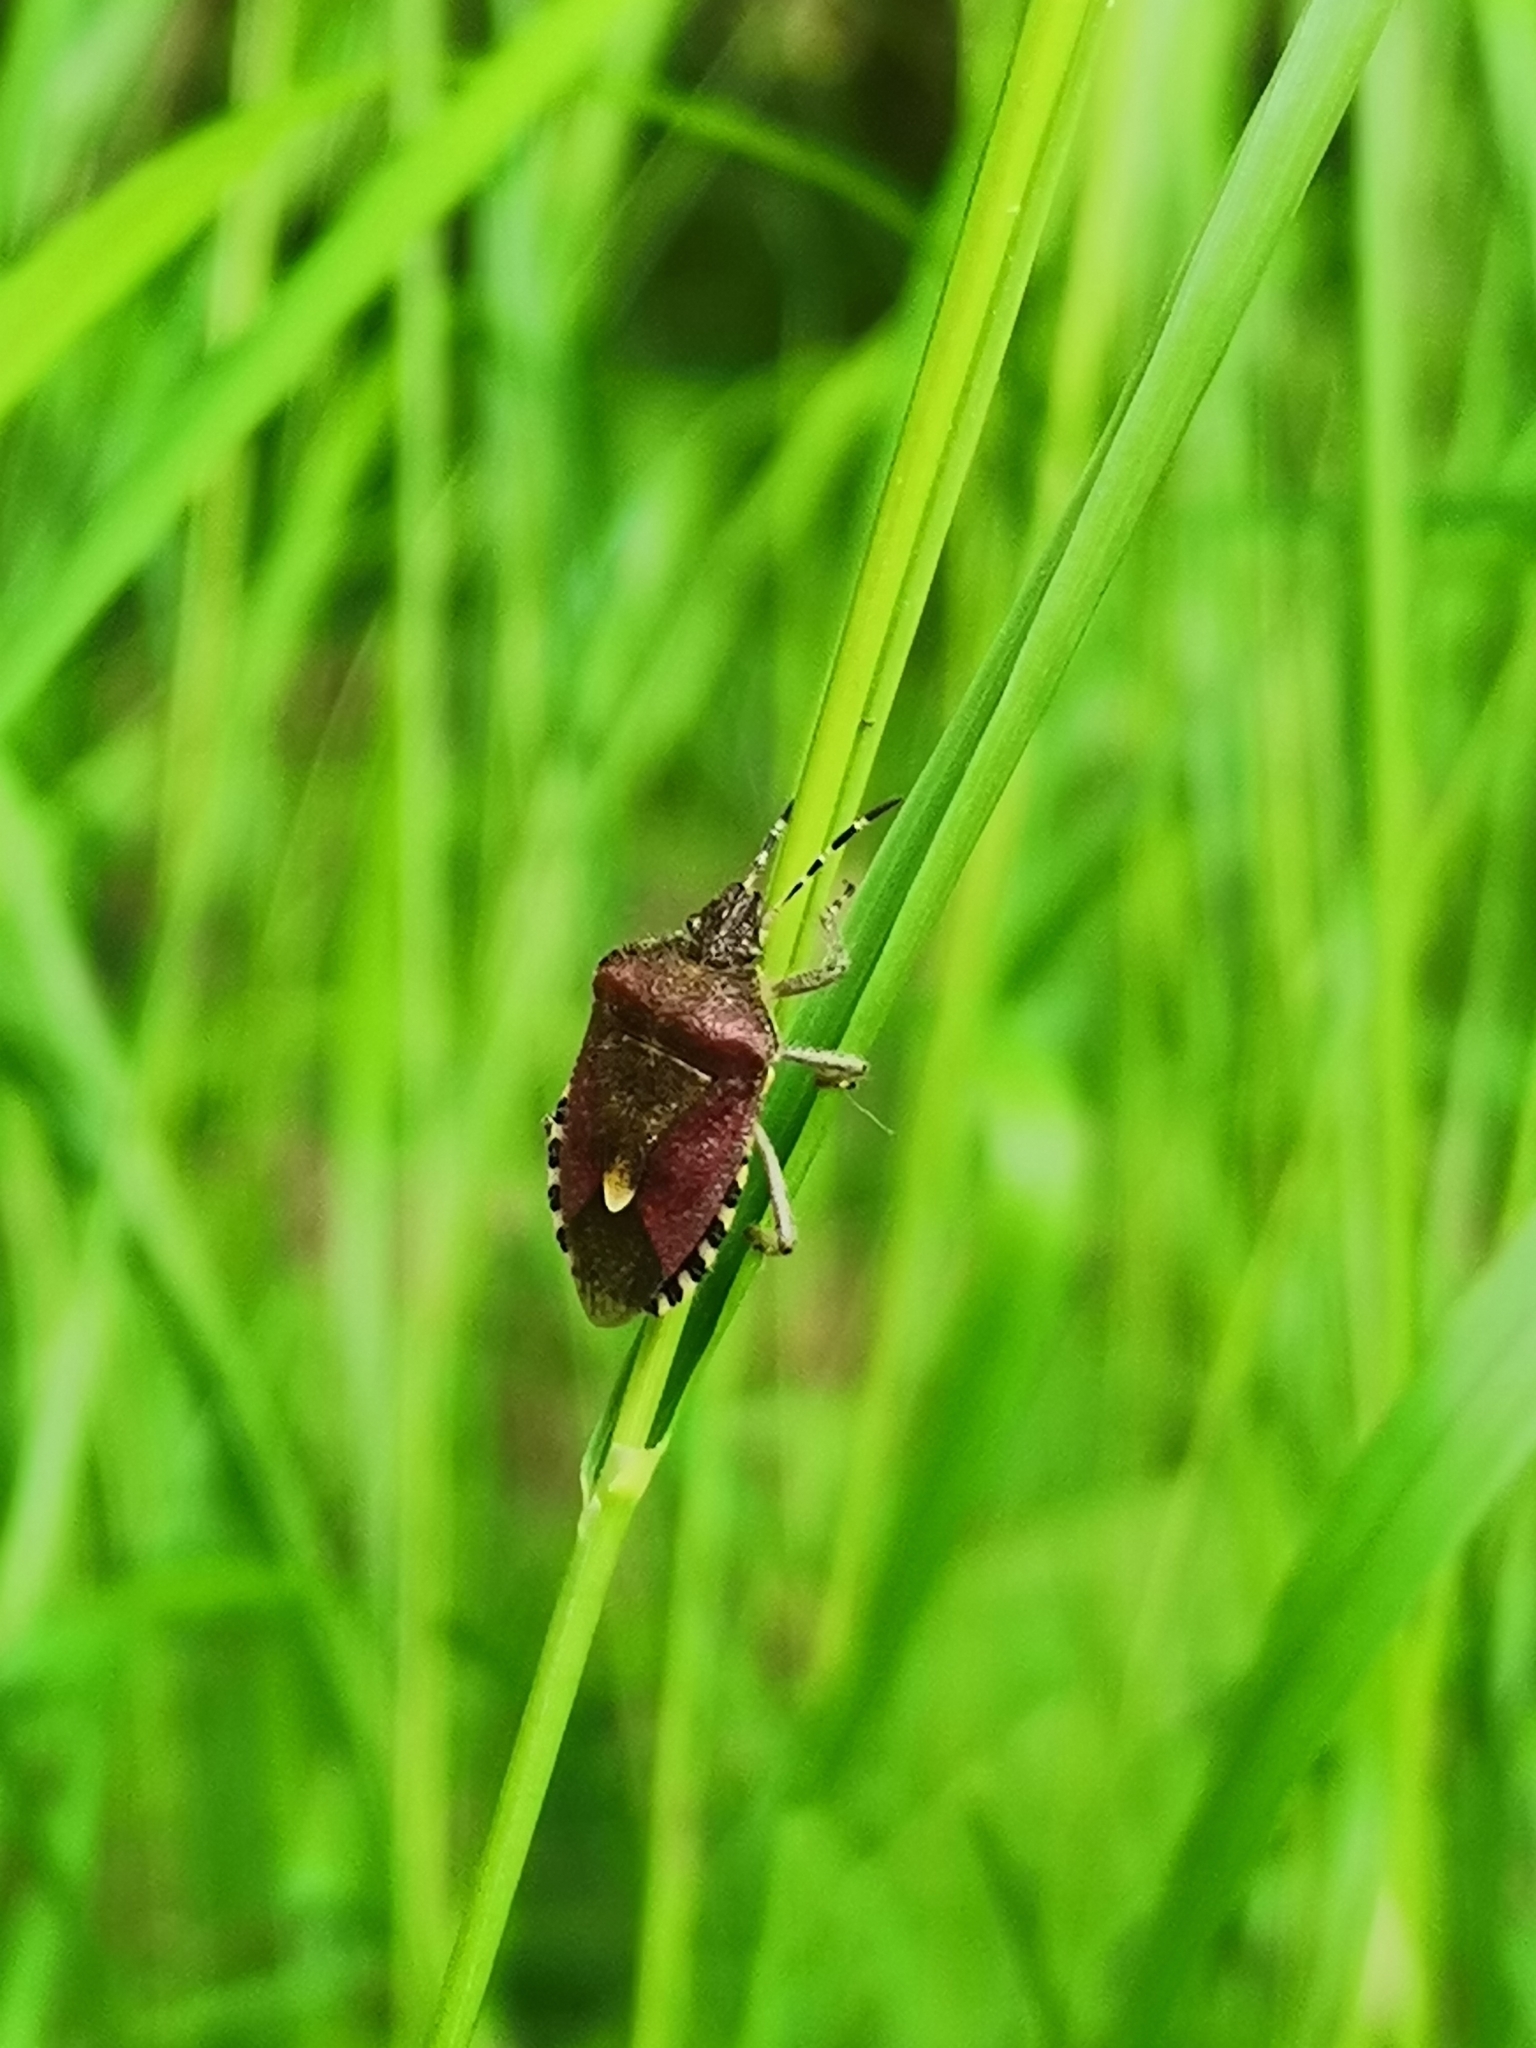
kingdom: Animalia
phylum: Arthropoda
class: Insecta
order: Hemiptera
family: Pentatomidae
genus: Dolycoris
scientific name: Dolycoris baccarum
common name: Sloe bug
